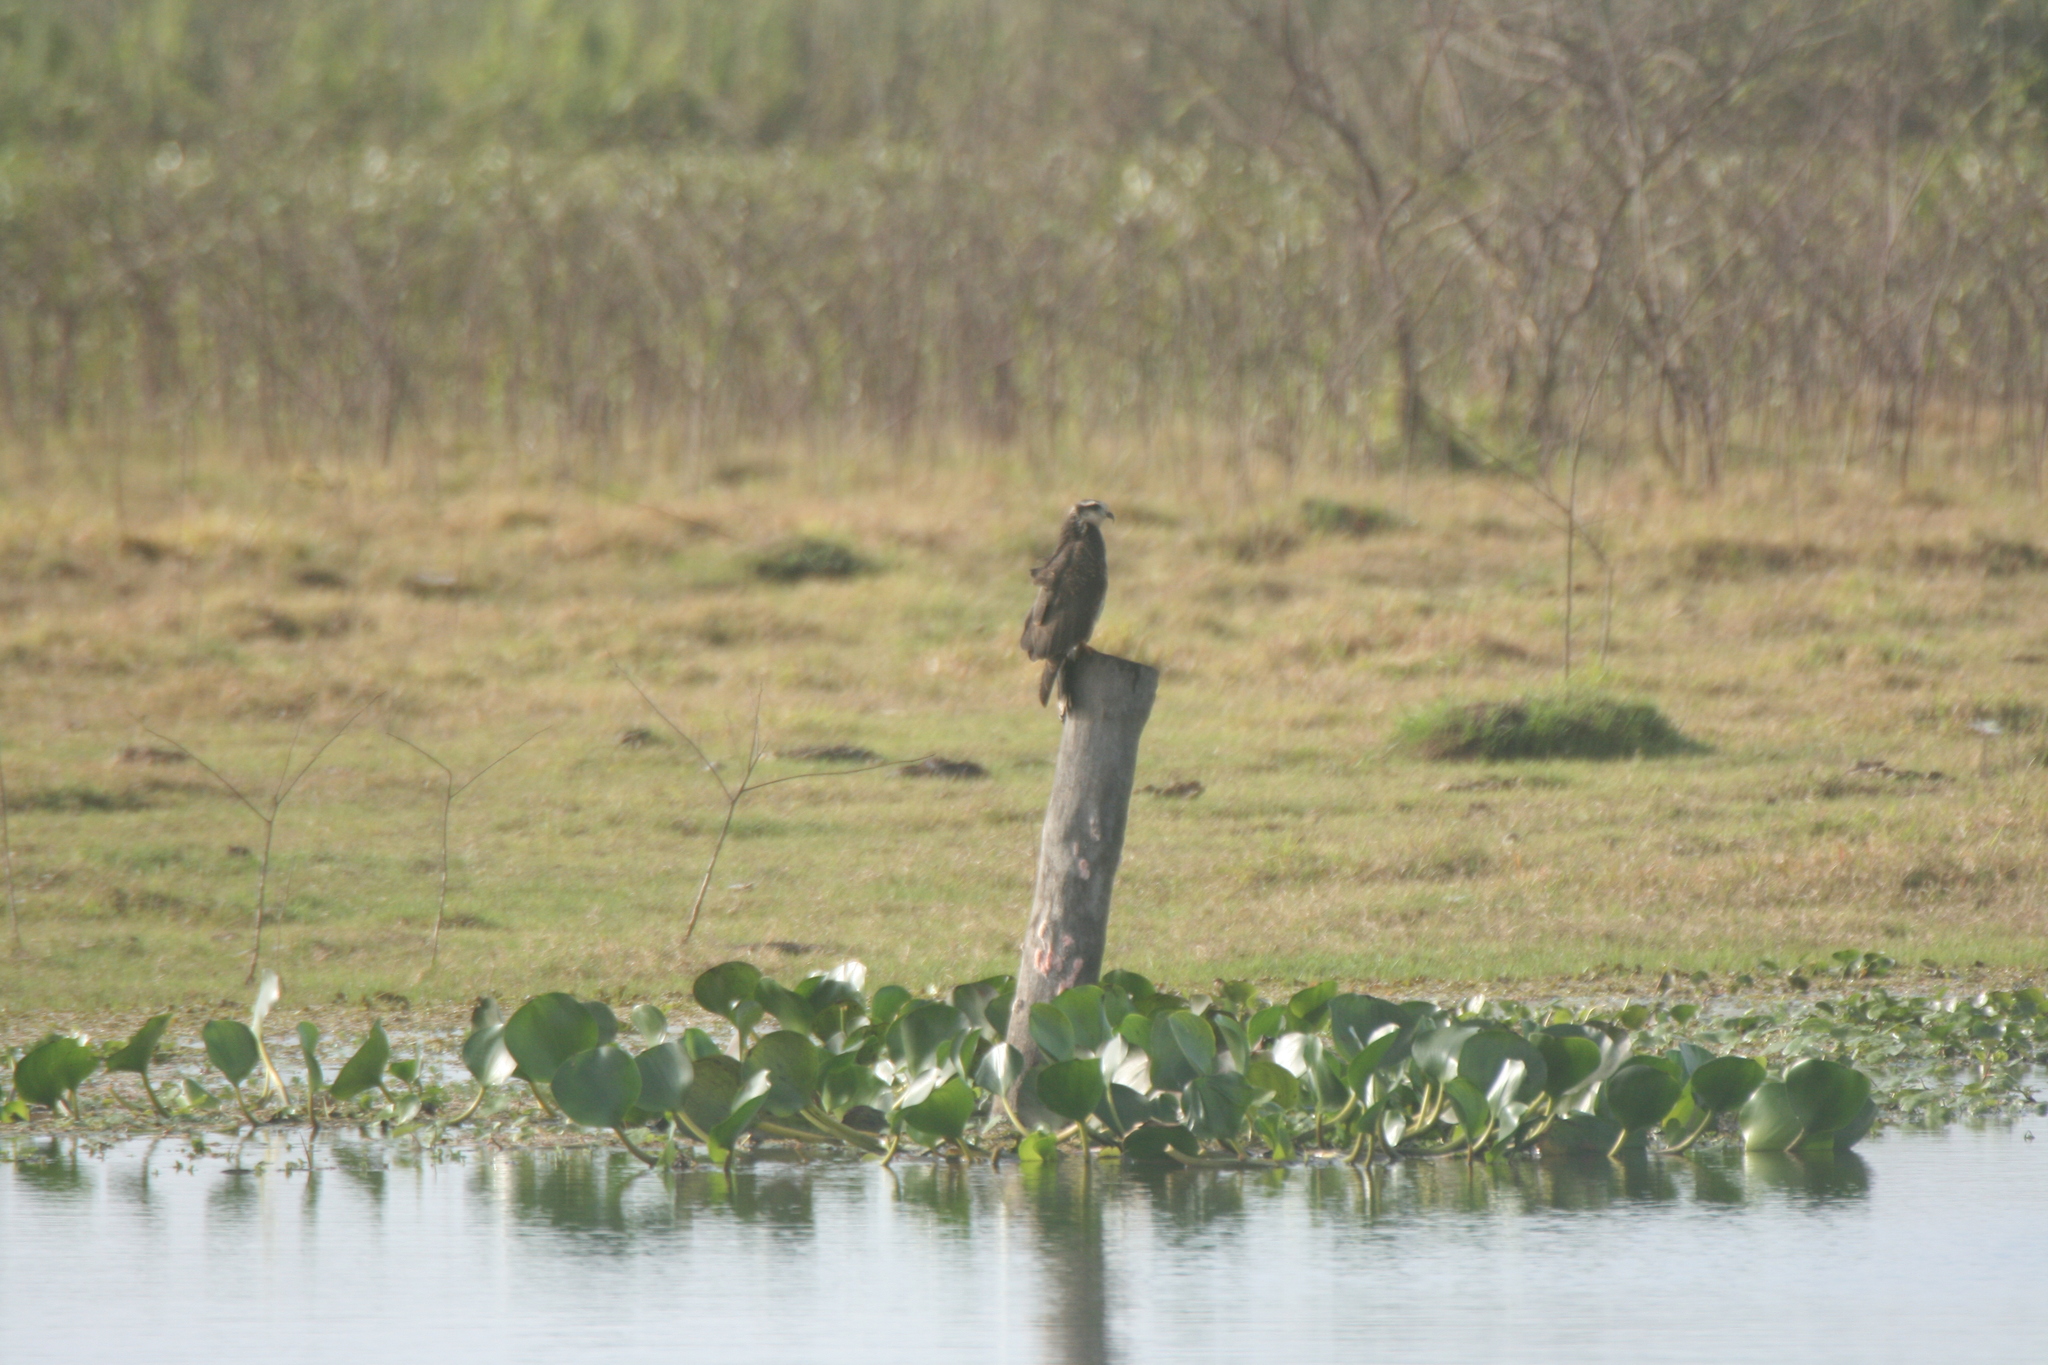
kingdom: Animalia
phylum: Chordata
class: Aves
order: Accipitriformes
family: Accipitridae
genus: Rostrhamus
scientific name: Rostrhamus sociabilis
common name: Snail kite
